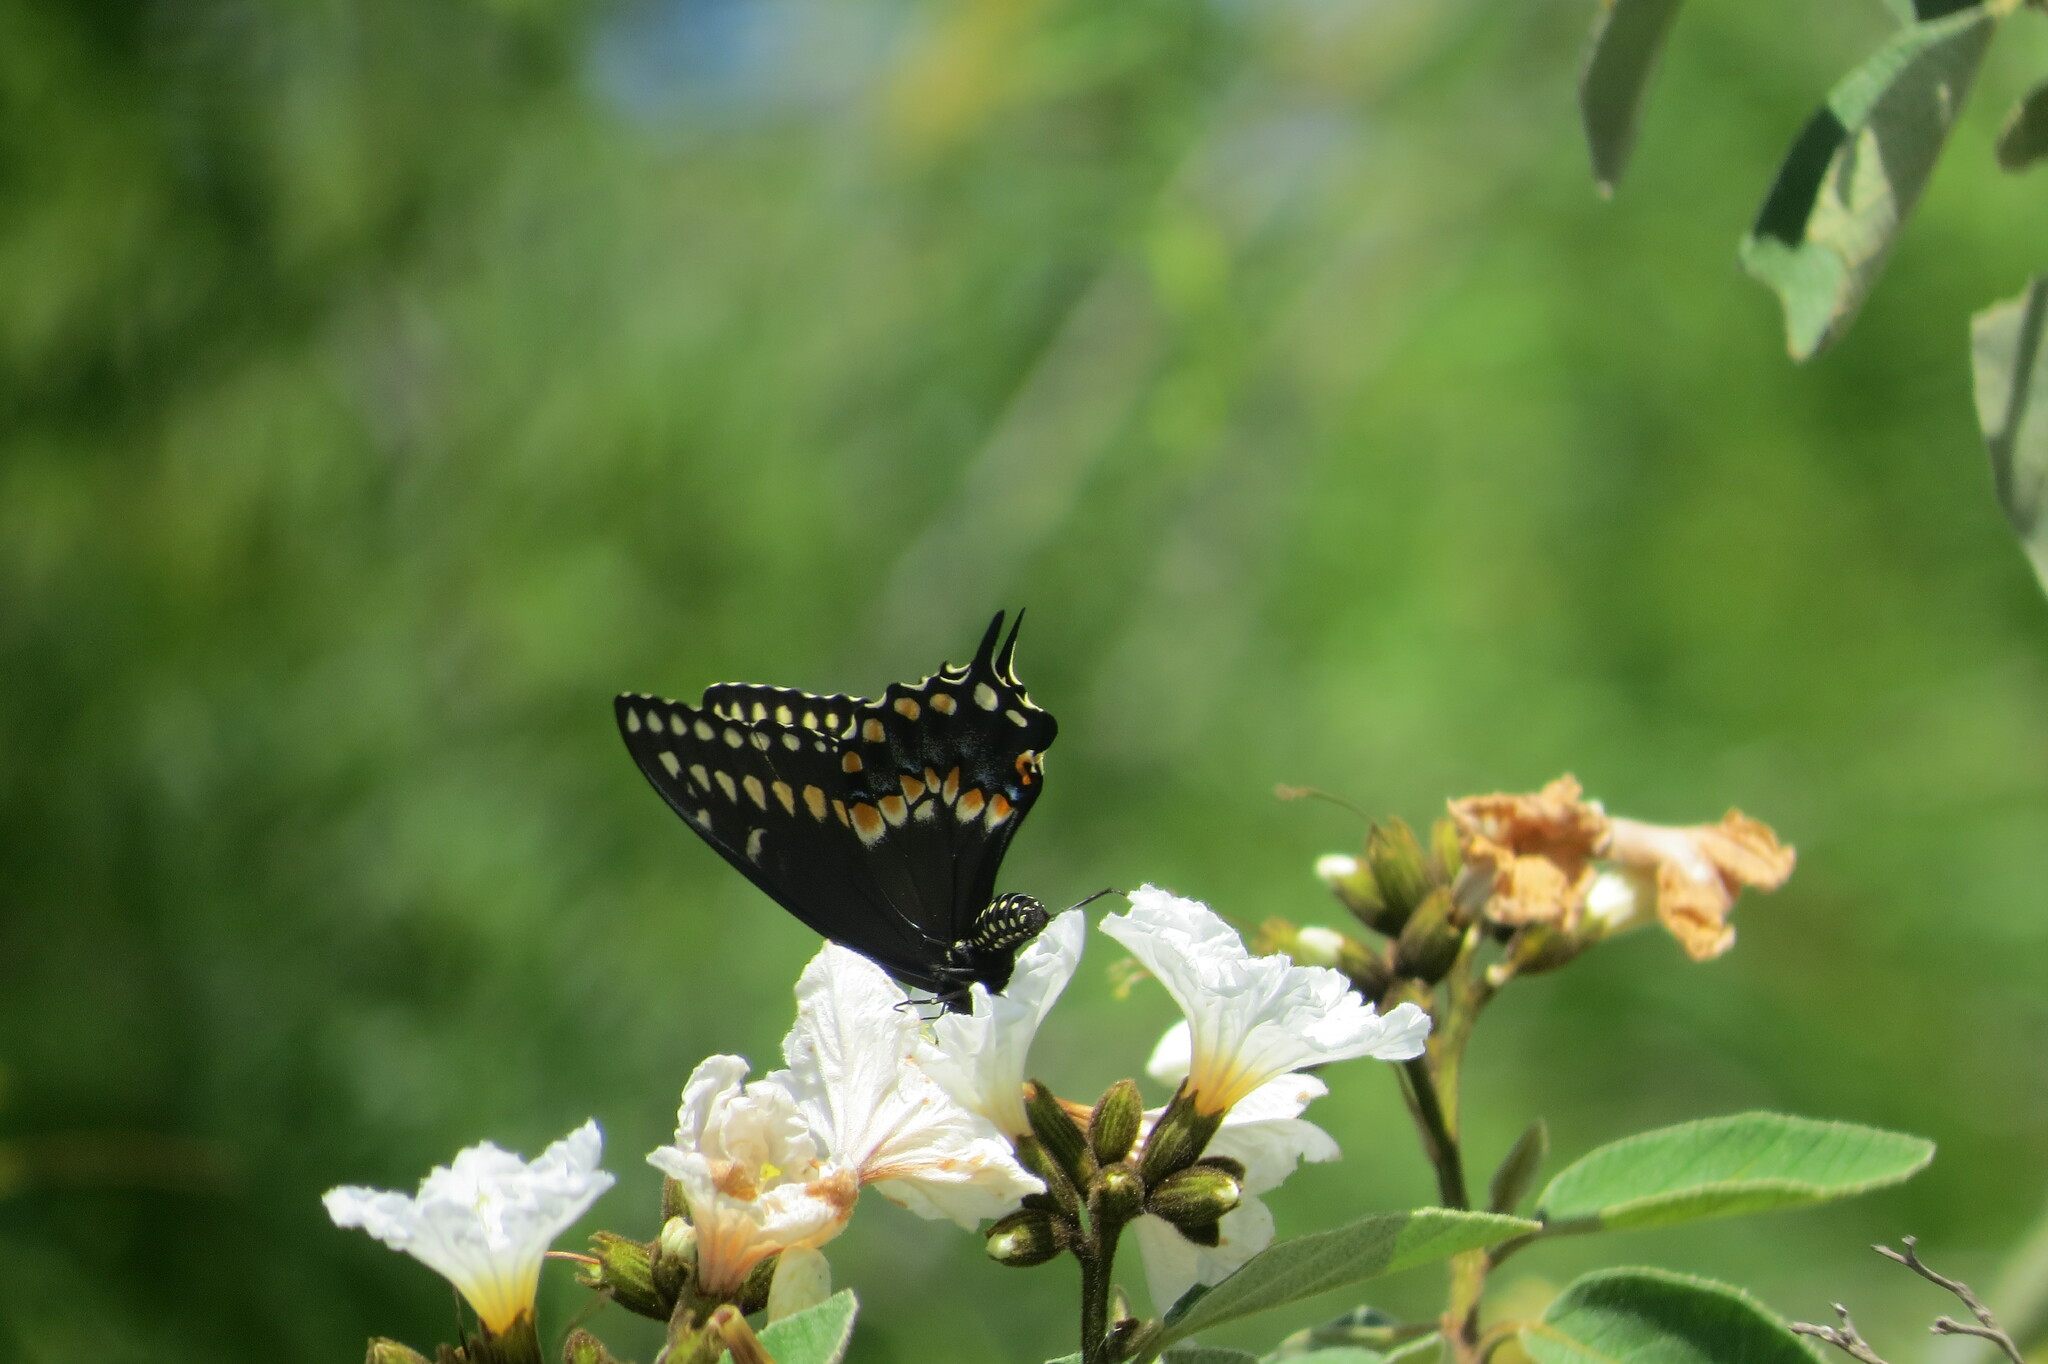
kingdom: Animalia
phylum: Arthropoda
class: Insecta
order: Lepidoptera
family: Papilionidae
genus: Papilio
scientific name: Papilio polyxenes
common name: Black swallowtail
